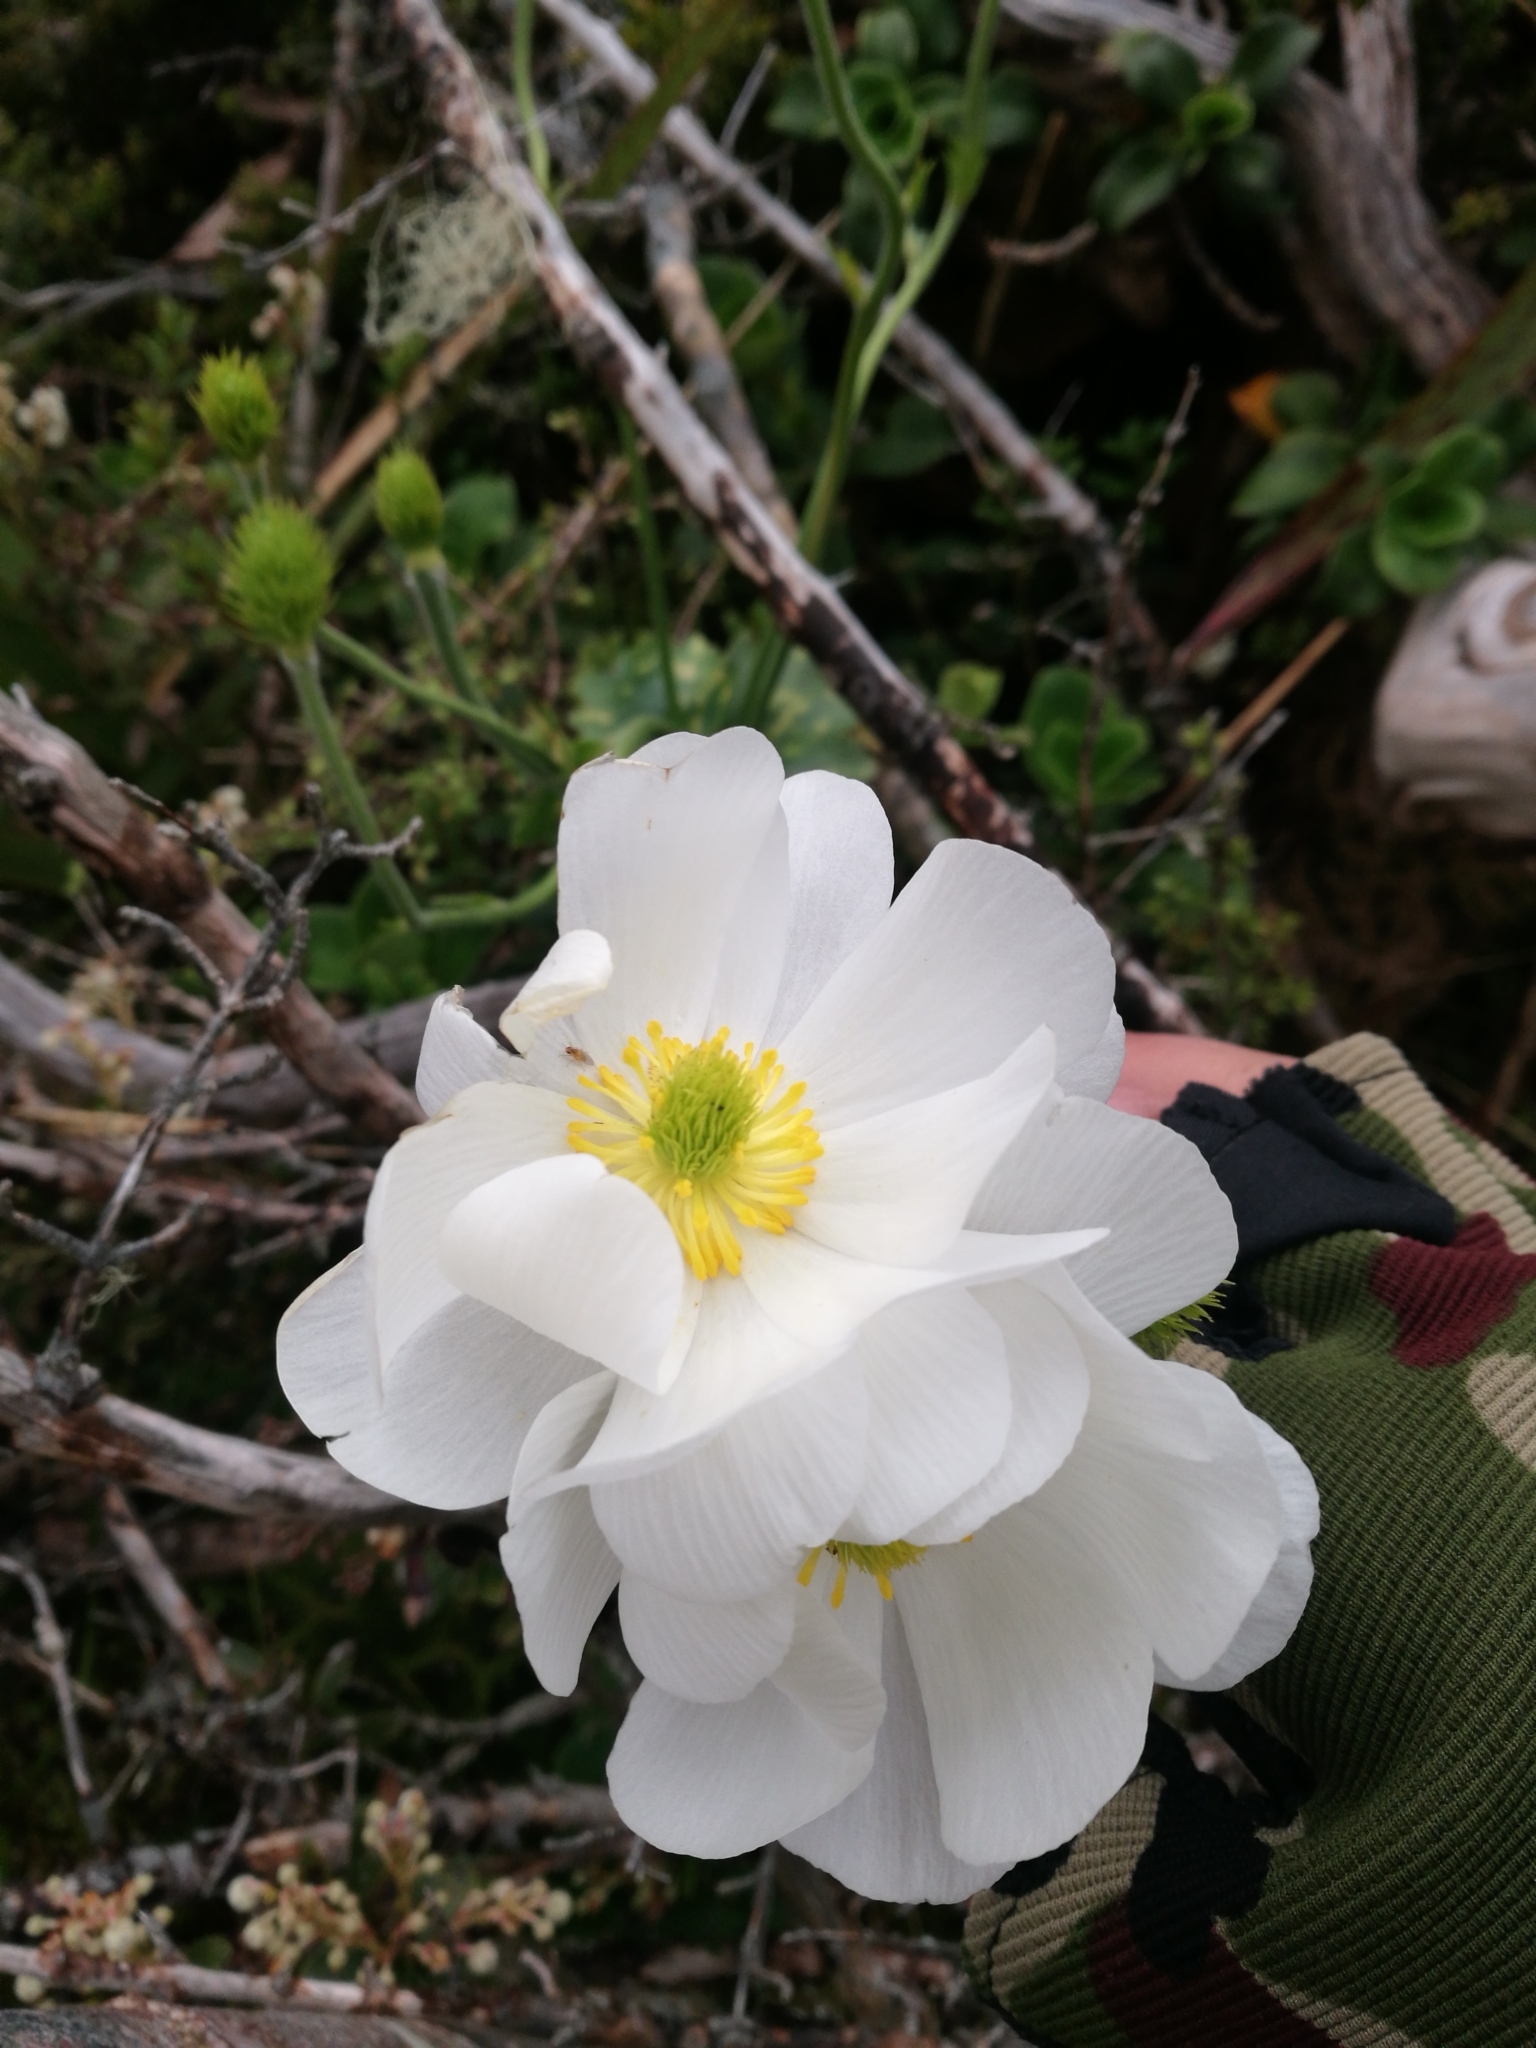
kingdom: Plantae
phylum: Tracheophyta
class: Magnoliopsida
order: Ranunculales
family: Ranunculaceae
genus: Ranunculus
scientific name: Ranunculus lyallii
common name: Mountain-lily
